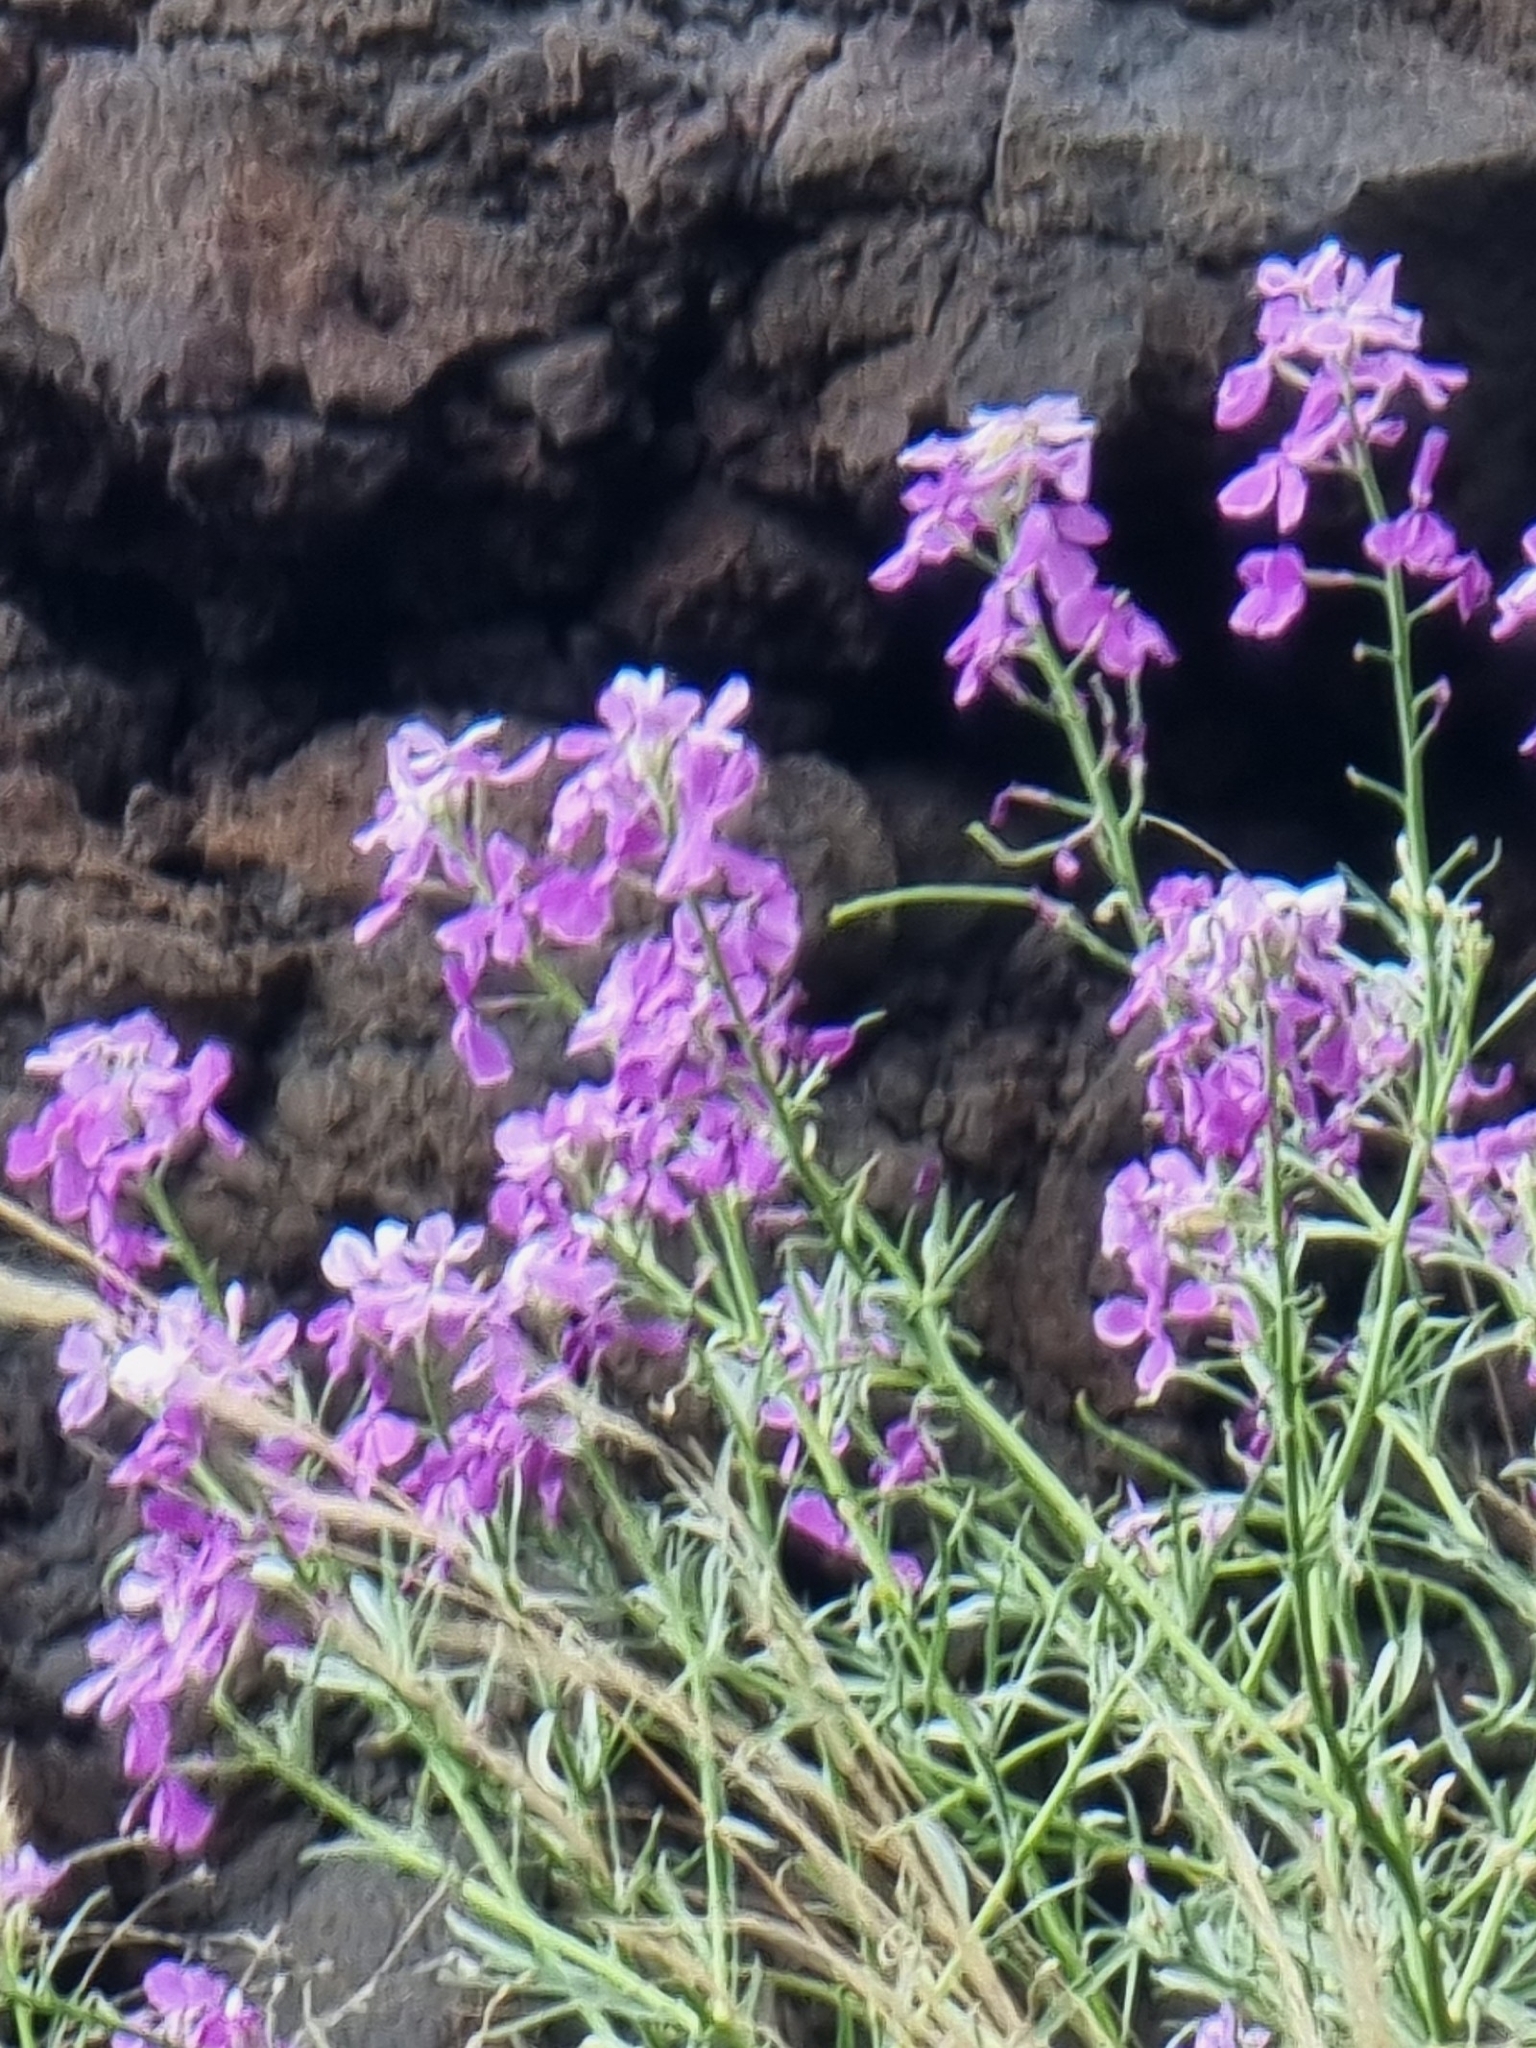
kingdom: Plantae
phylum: Tracheophyta
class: Magnoliopsida
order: Brassicales
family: Brassicaceae
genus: Matthiola
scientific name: Matthiola maderensis
